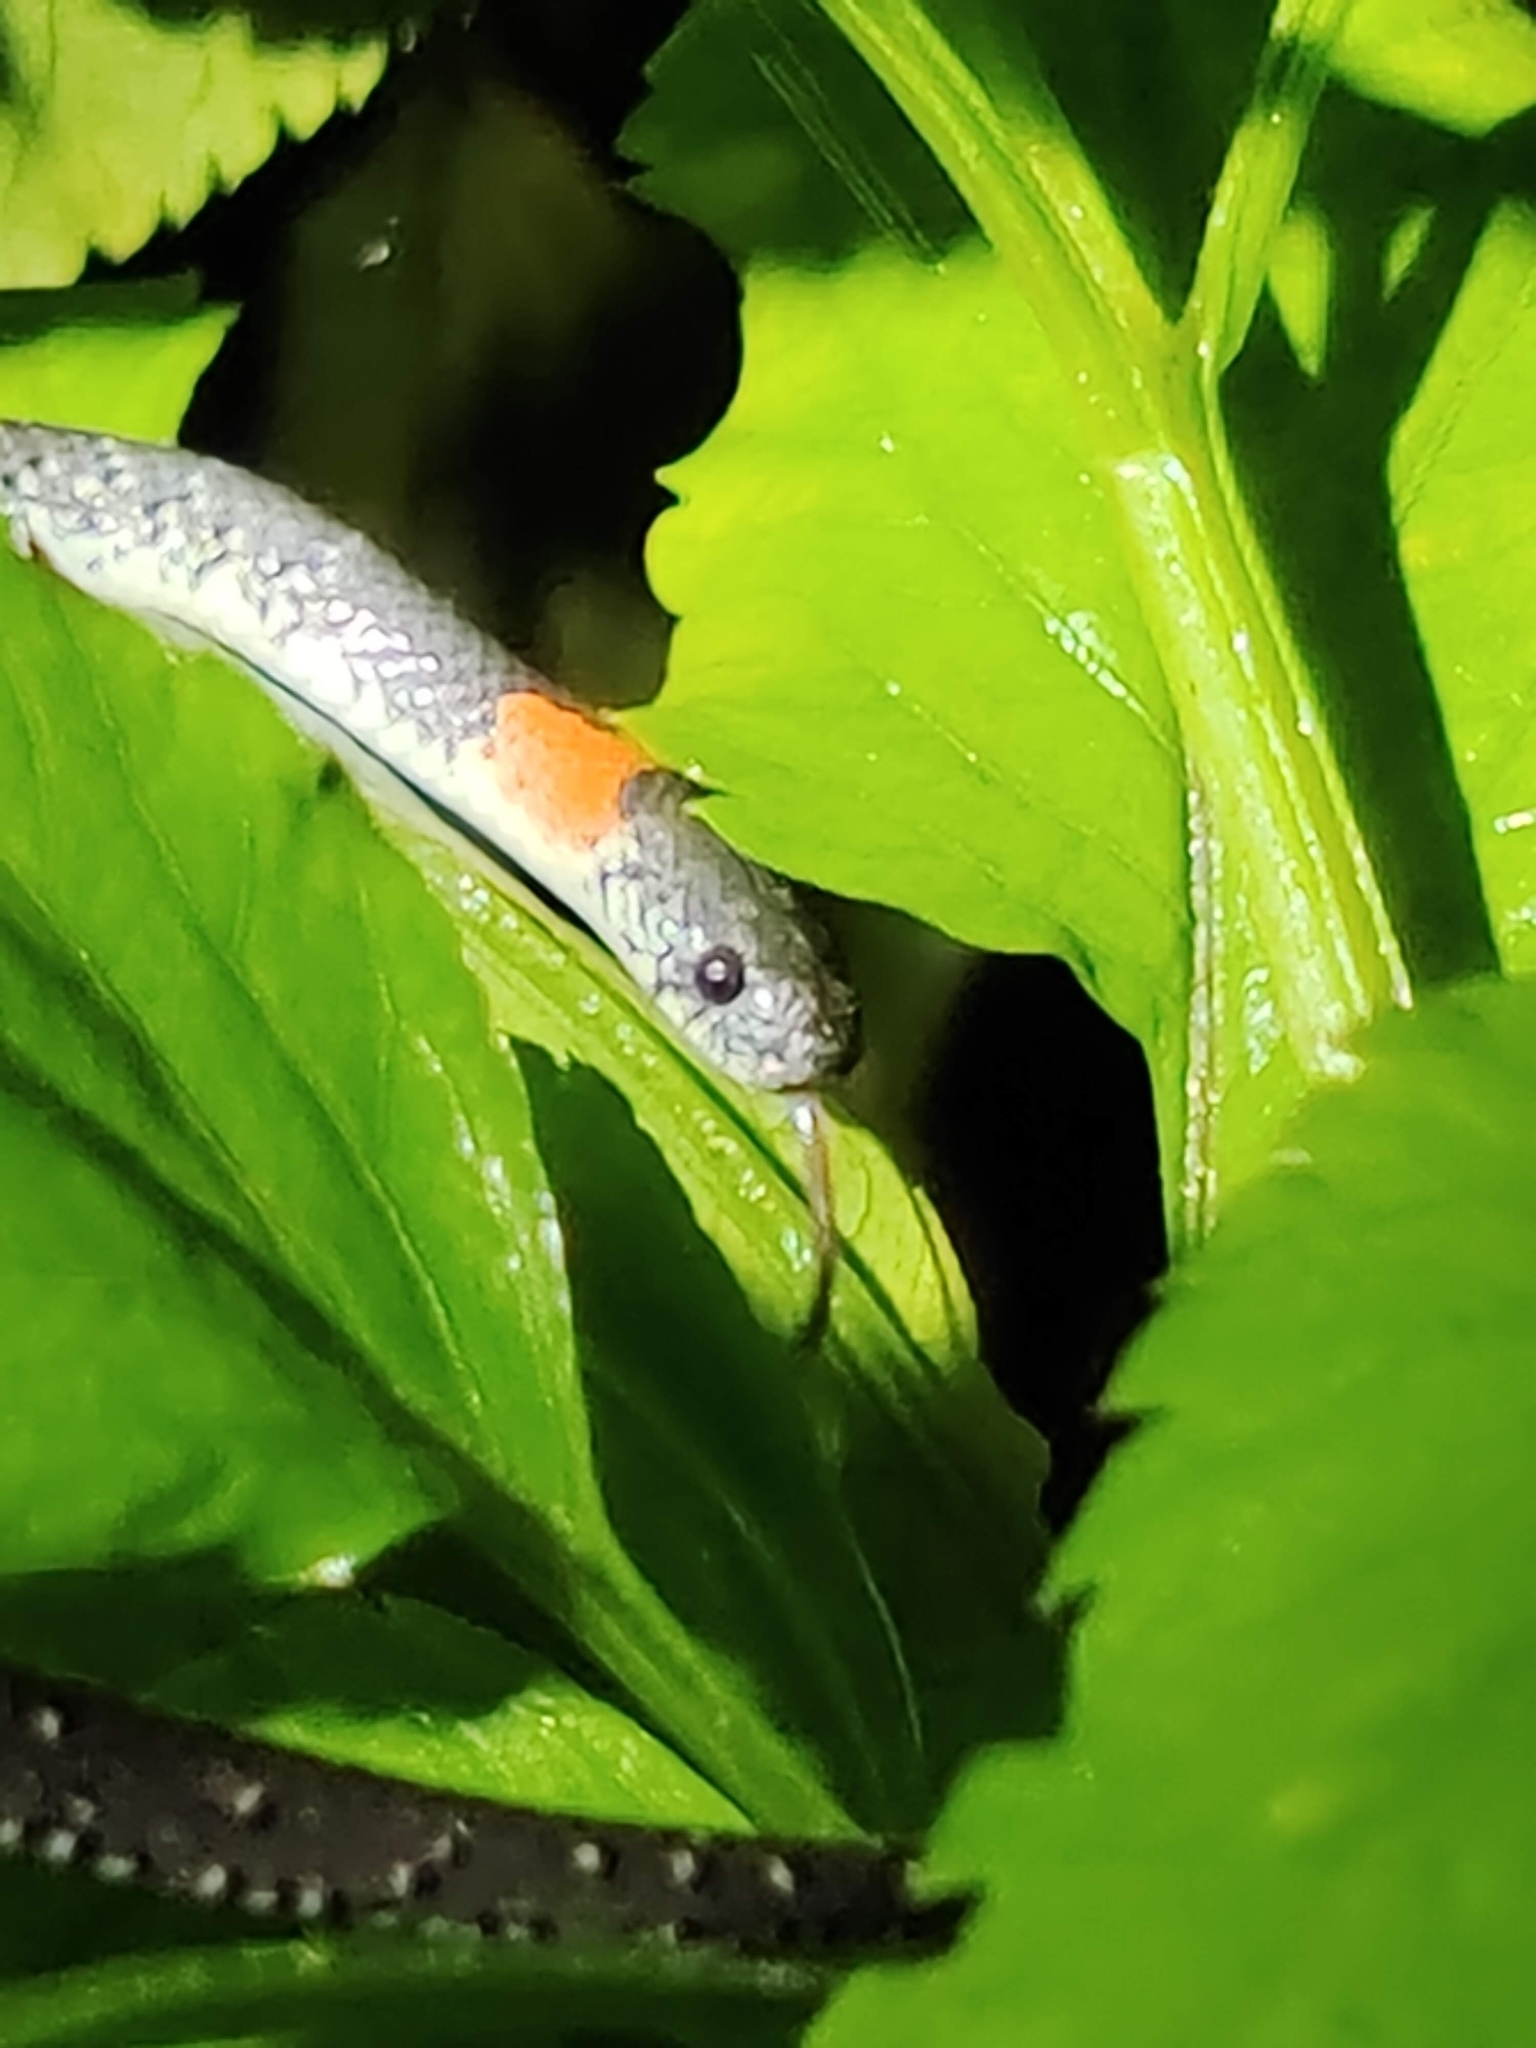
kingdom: Animalia
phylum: Chordata
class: Squamata
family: Pareidae
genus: Pareas
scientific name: Pareas margaritophorus
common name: Mountain slug snake
